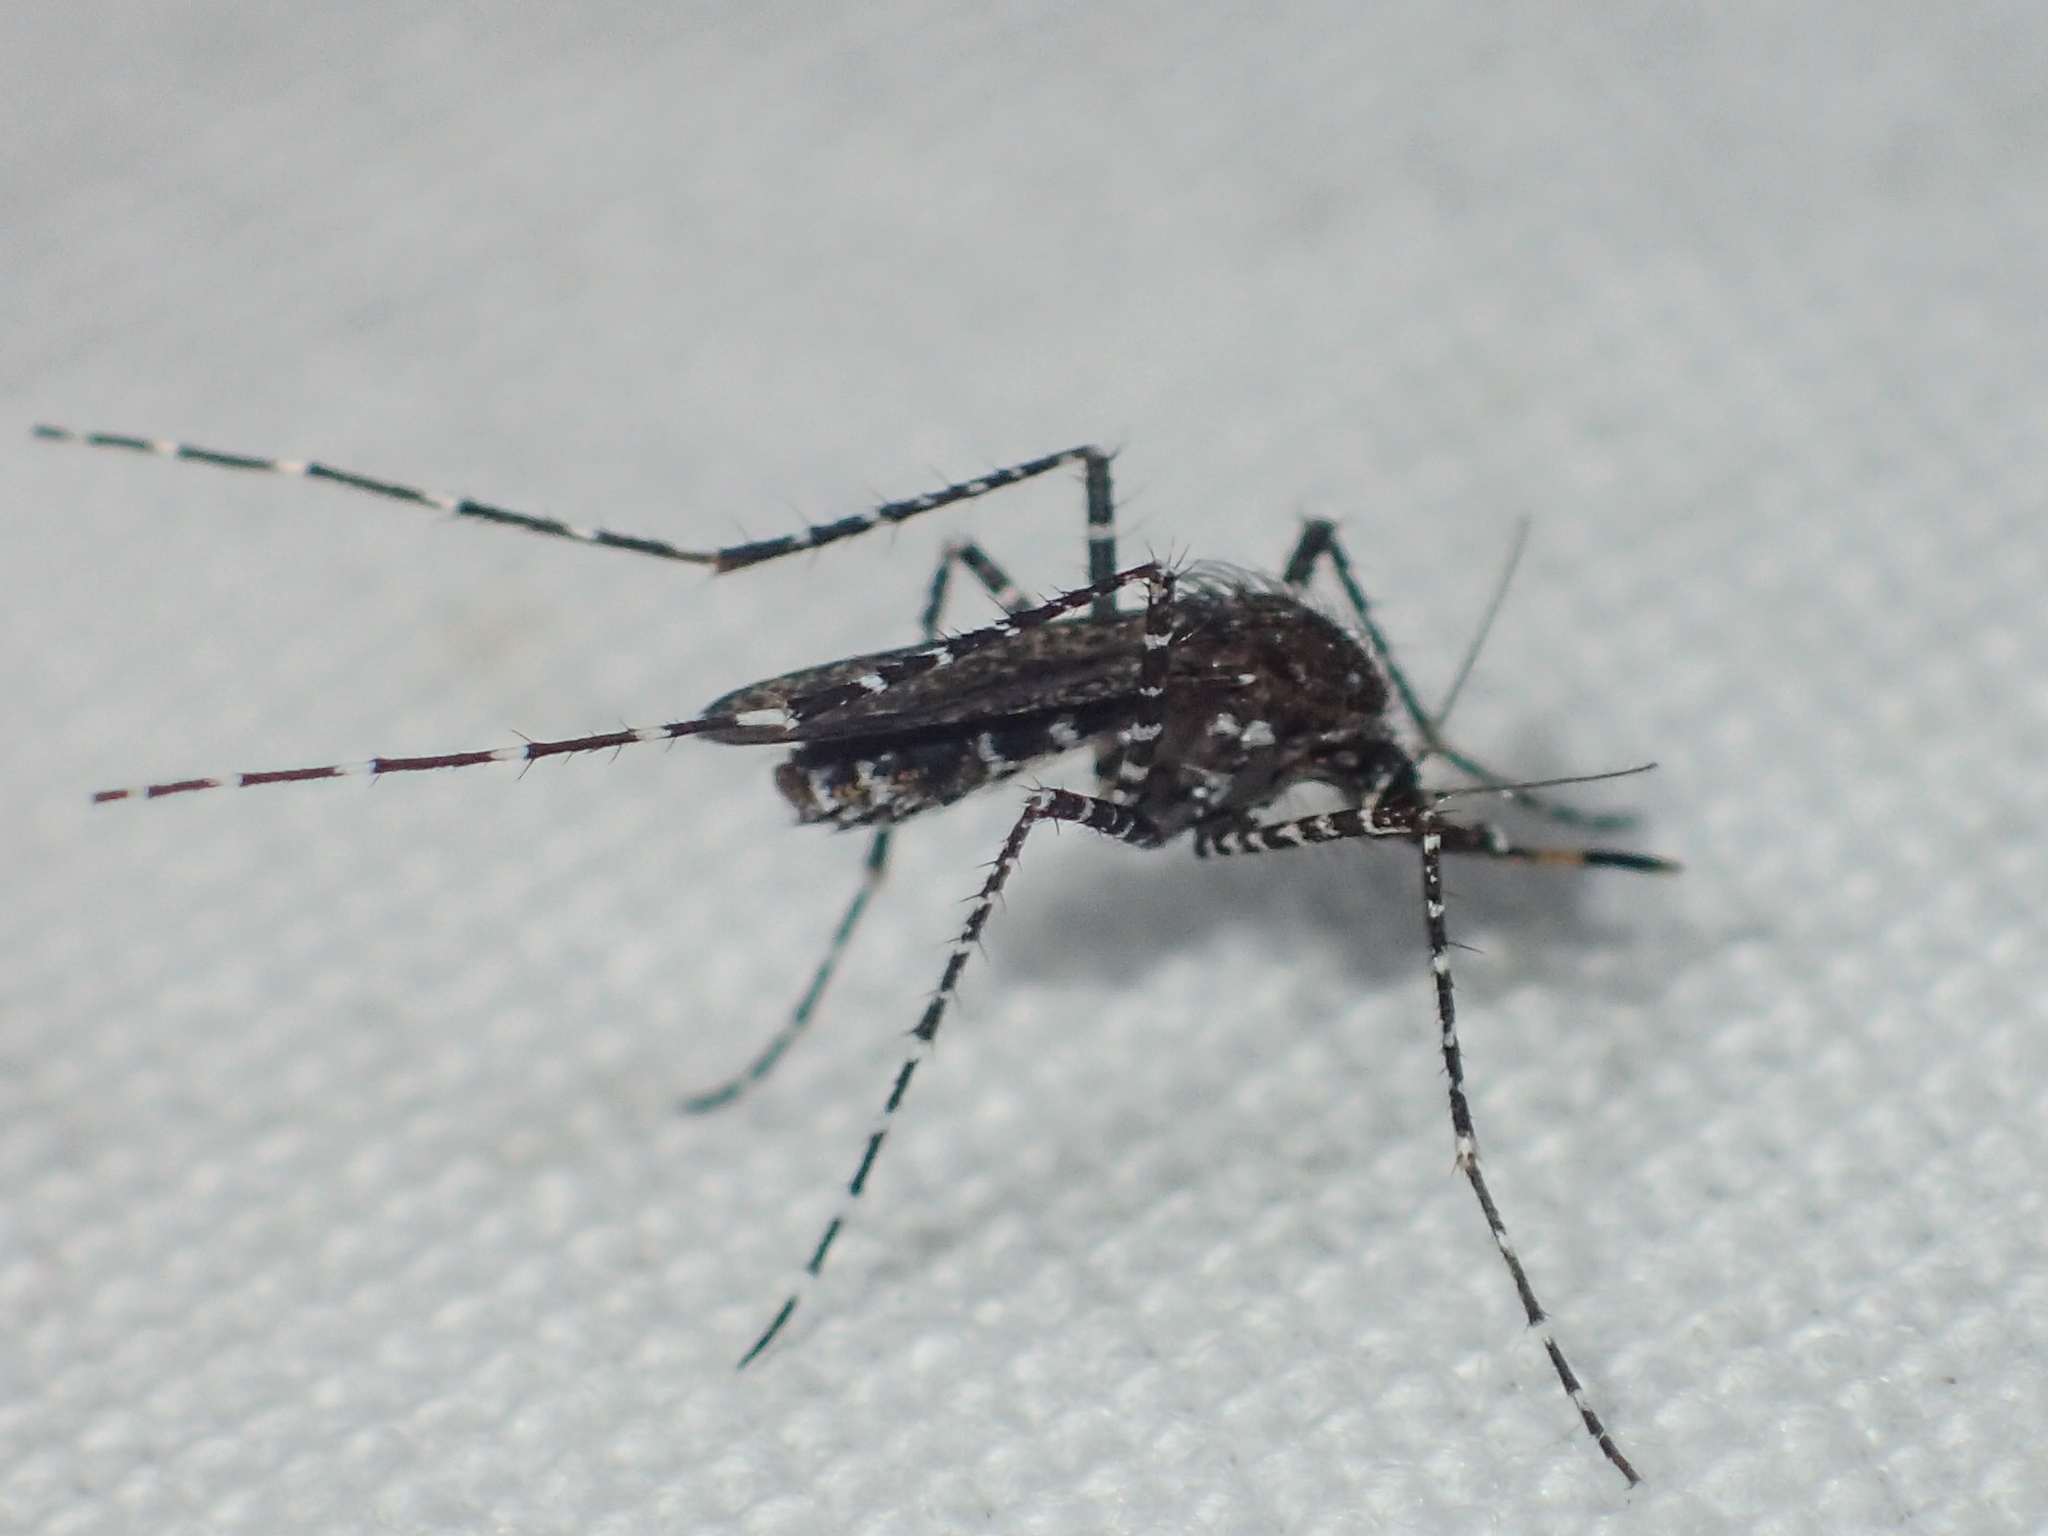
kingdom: Animalia
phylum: Arthropoda
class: Insecta
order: Diptera
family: Culicidae
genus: Aedes
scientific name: Aedes poicilius
